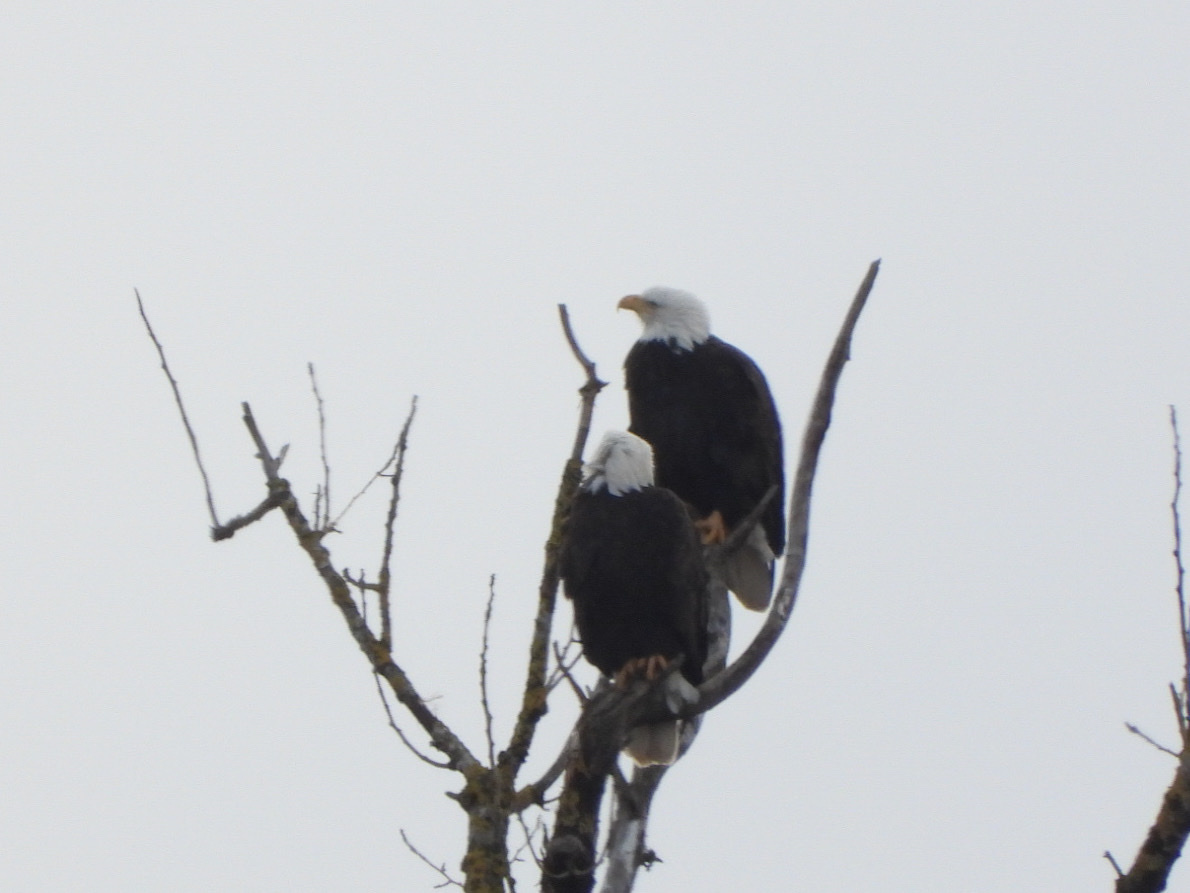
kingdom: Animalia
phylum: Chordata
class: Aves
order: Accipitriformes
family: Accipitridae
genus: Haliaeetus
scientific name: Haliaeetus leucocephalus
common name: Bald eagle
